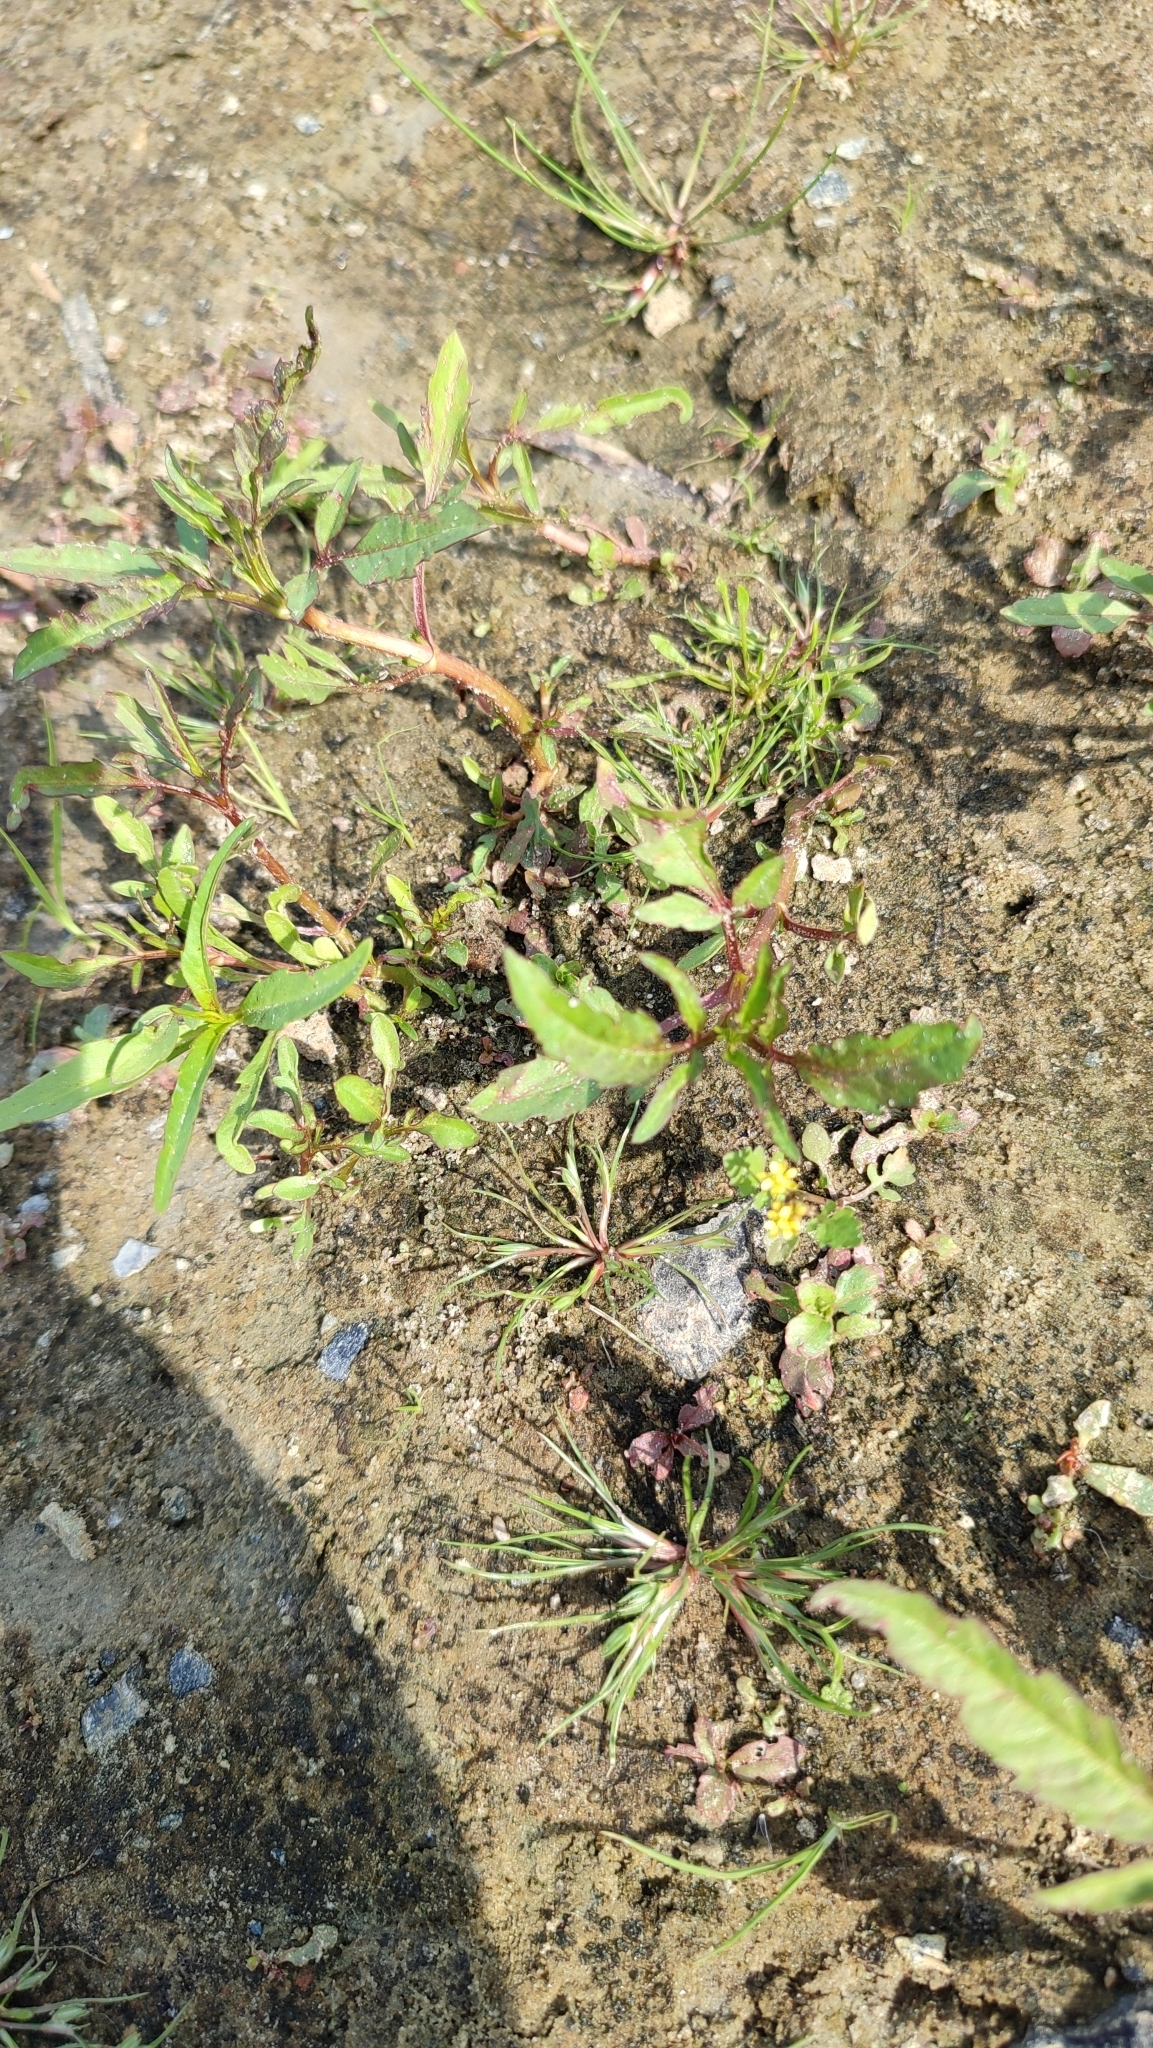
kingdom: Plantae
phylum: Tracheophyta
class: Magnoliopsida
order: Brassicales
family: Brassicaceae
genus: Rorippa
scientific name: Rorippa palustris
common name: Marsh yellow-cress
